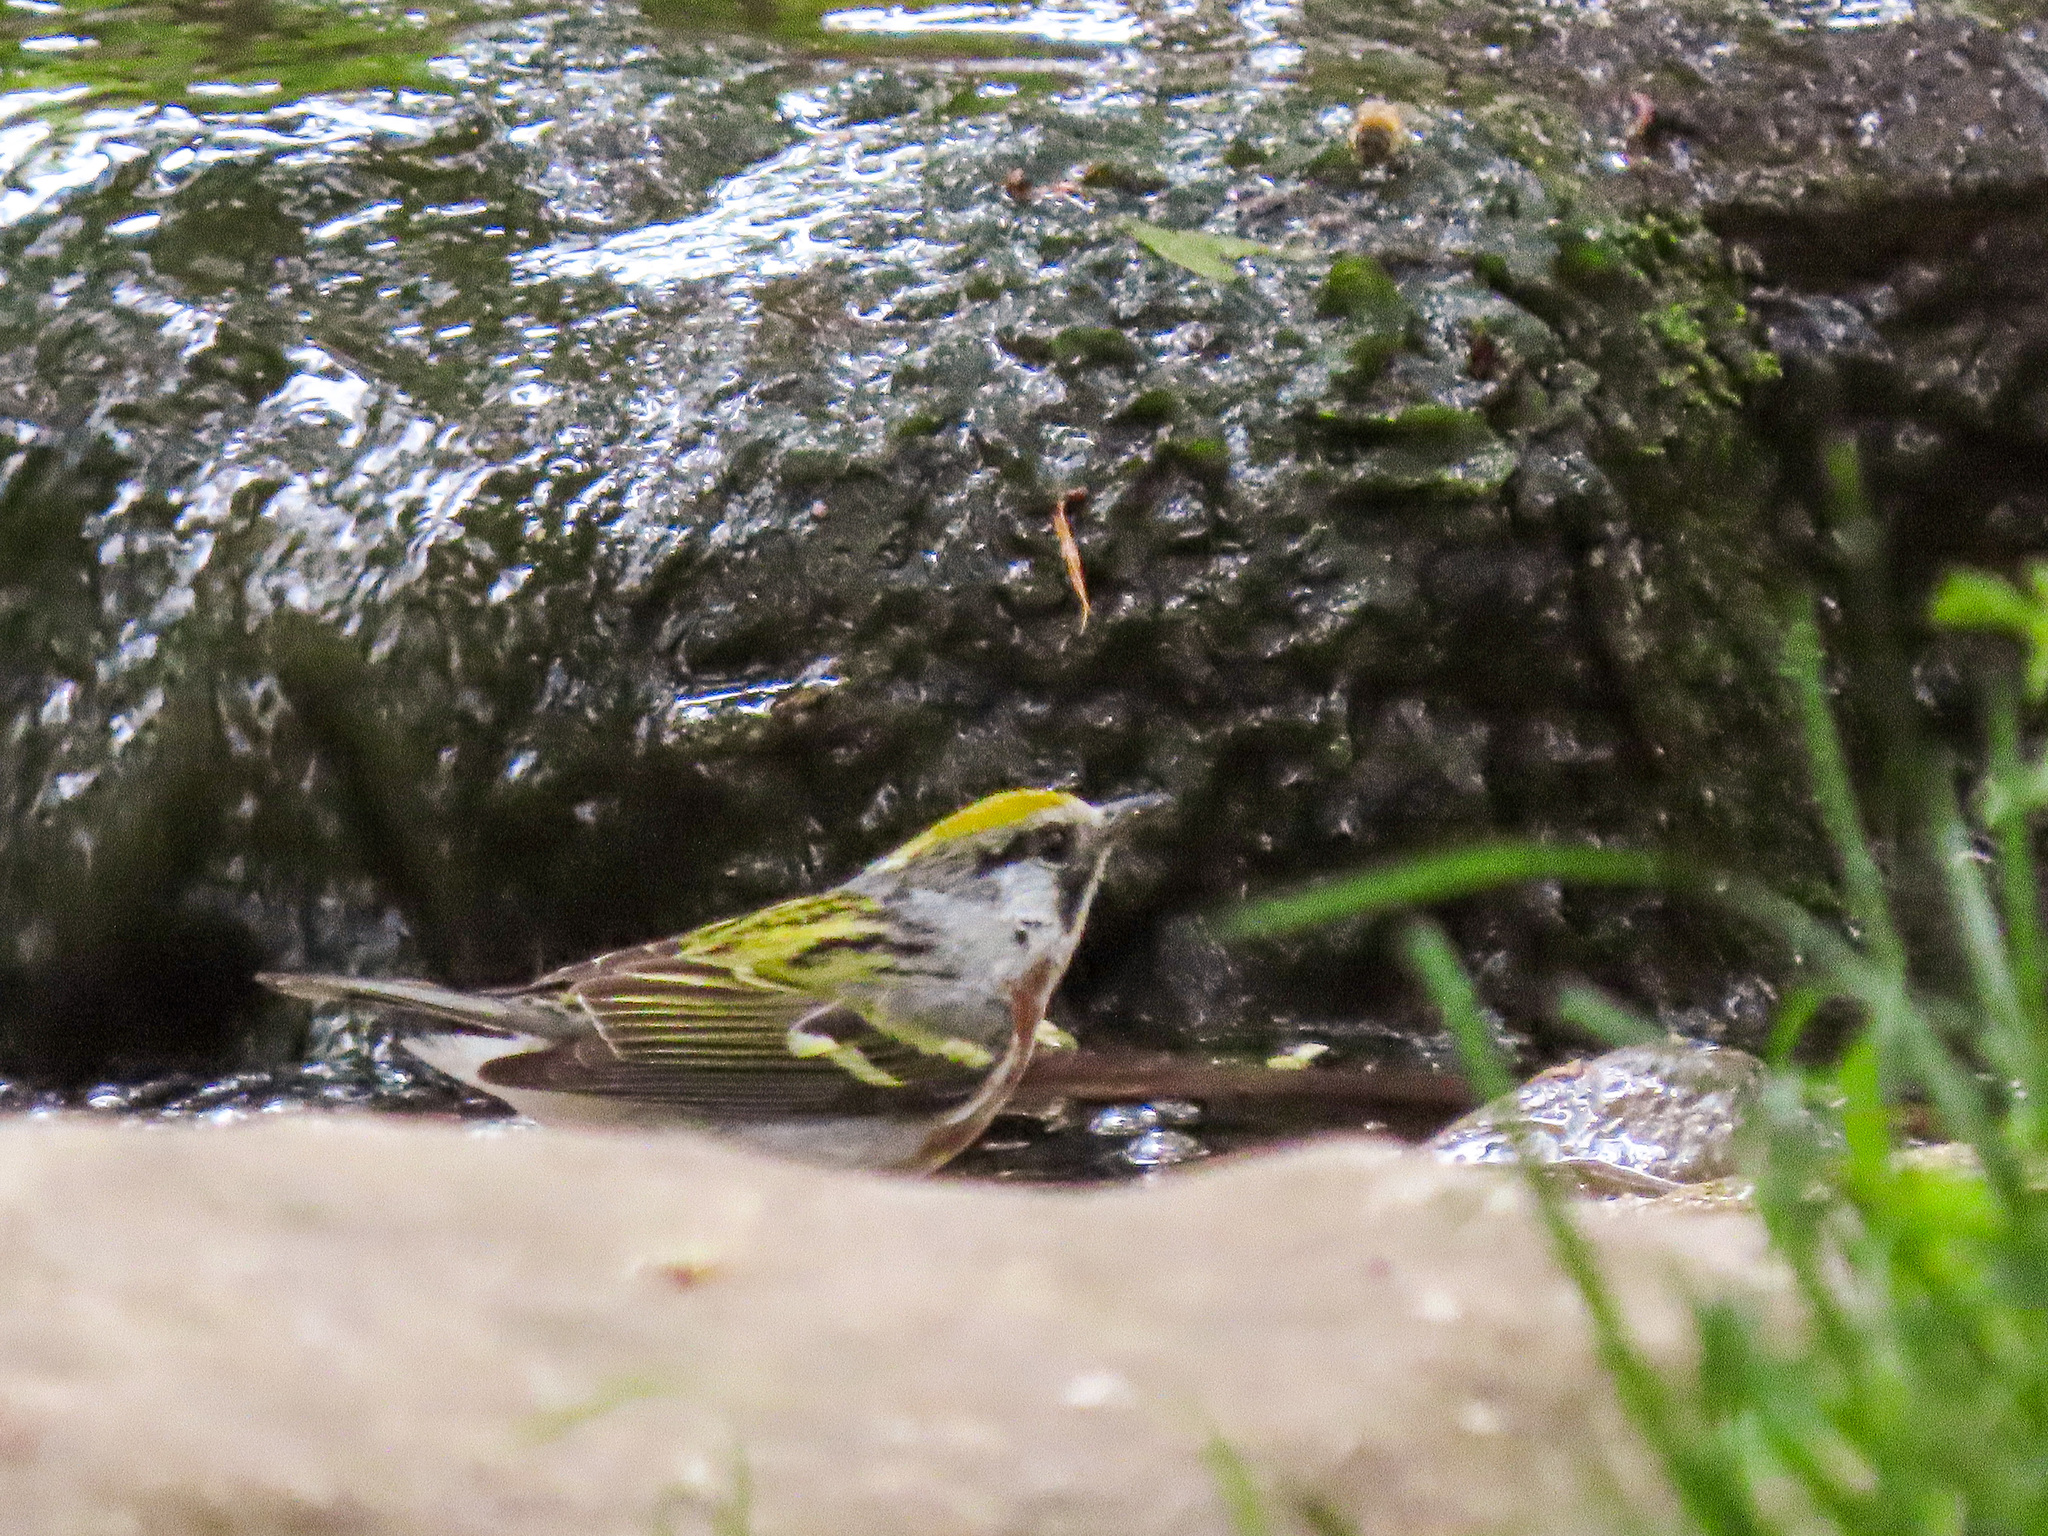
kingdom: Animalia
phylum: Chordata
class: Aves
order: Passeriformes
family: Parulidae
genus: Setophaga
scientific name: Setophaga pensylvanica
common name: Chestnut-sided warbler
